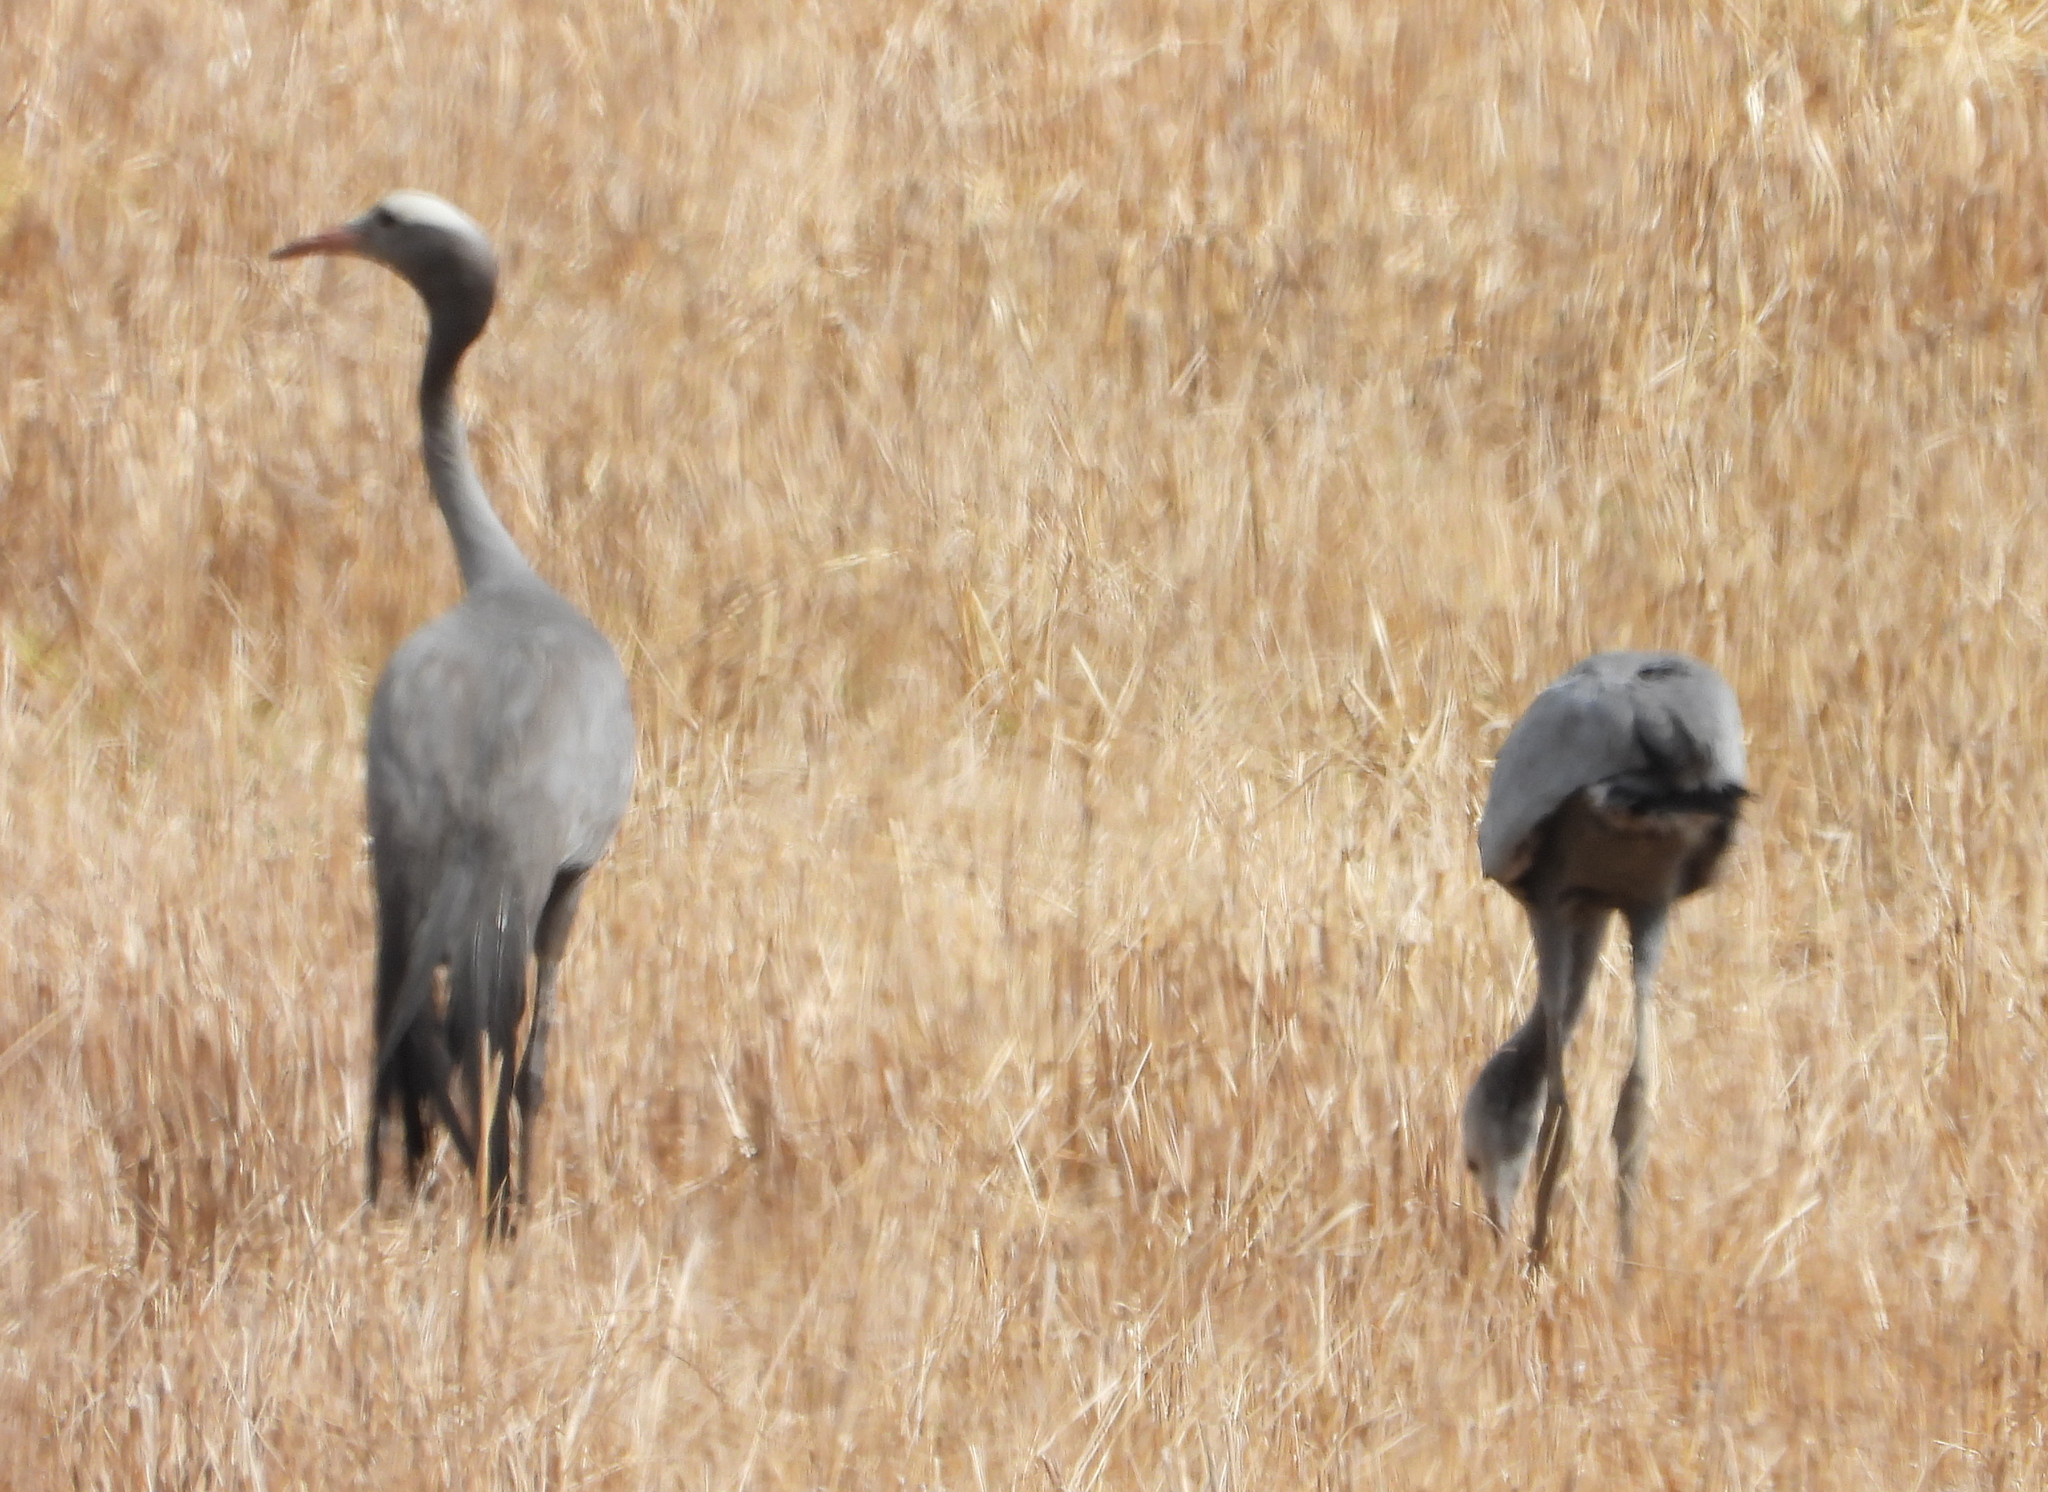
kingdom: Animalia
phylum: Chordata
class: Aves
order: Gruiformes
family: Gruidae
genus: Anthropoides
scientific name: Anthropoides paradiseus
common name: Blue crane
